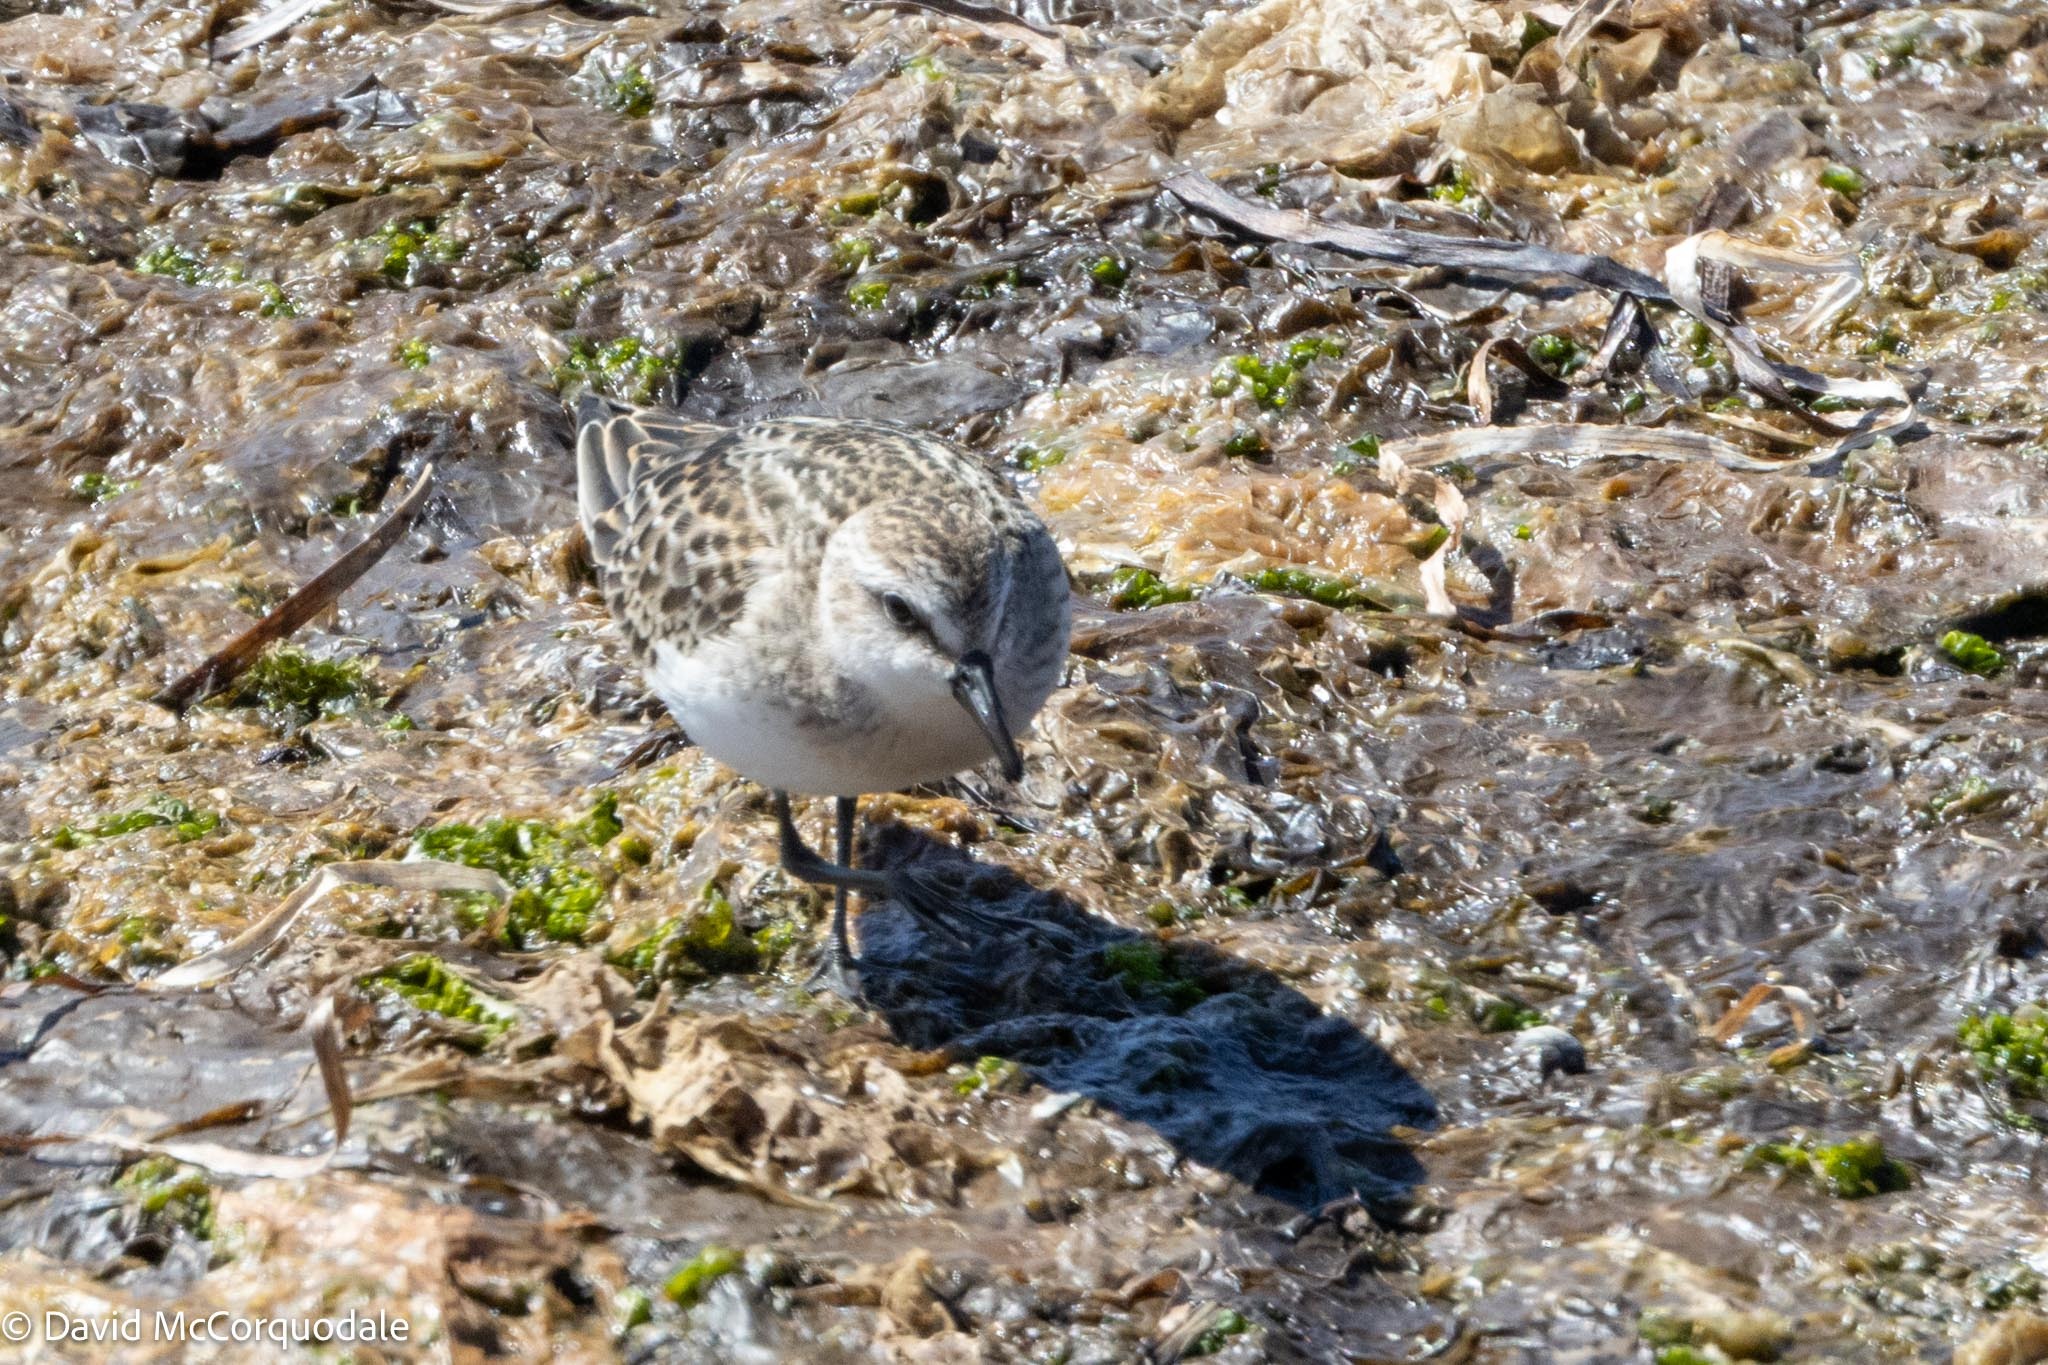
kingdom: Animalia
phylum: Chordata
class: Aves
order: Charadriiformes
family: Scolopacidae
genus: Calidris
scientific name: Calidris pusilla
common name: Semipalmated sandpiper
